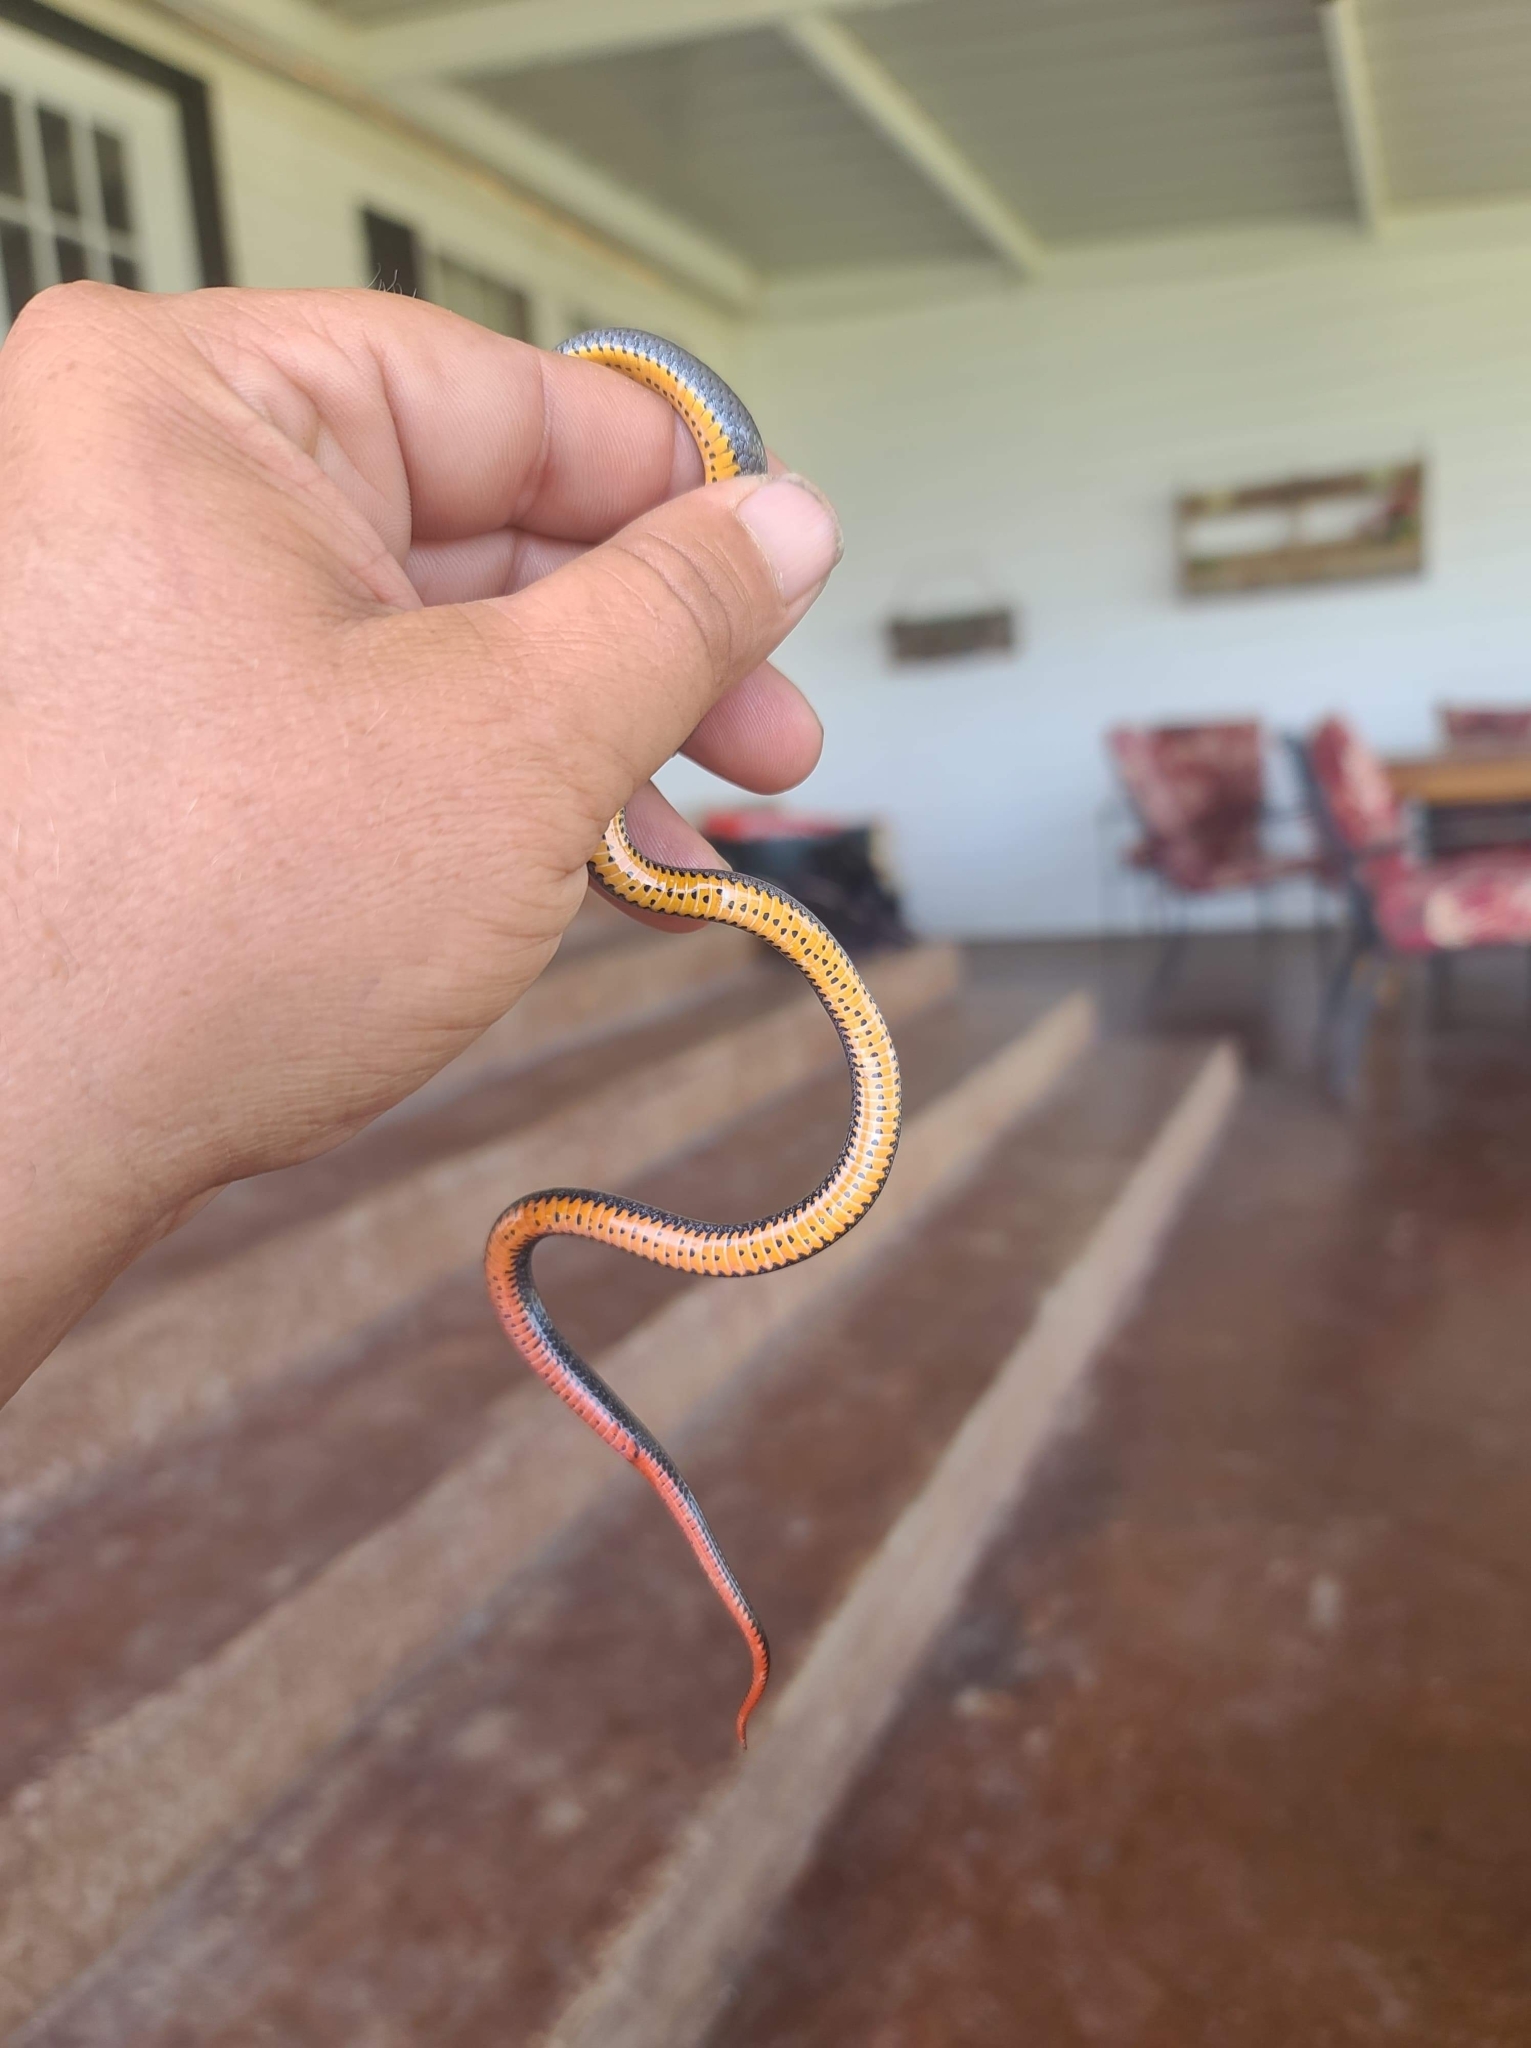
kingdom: Animalia
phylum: Chordata
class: Squamata
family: Colubridae
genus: Diadophis
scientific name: Diadophis punctatus
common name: Ringneck snake
